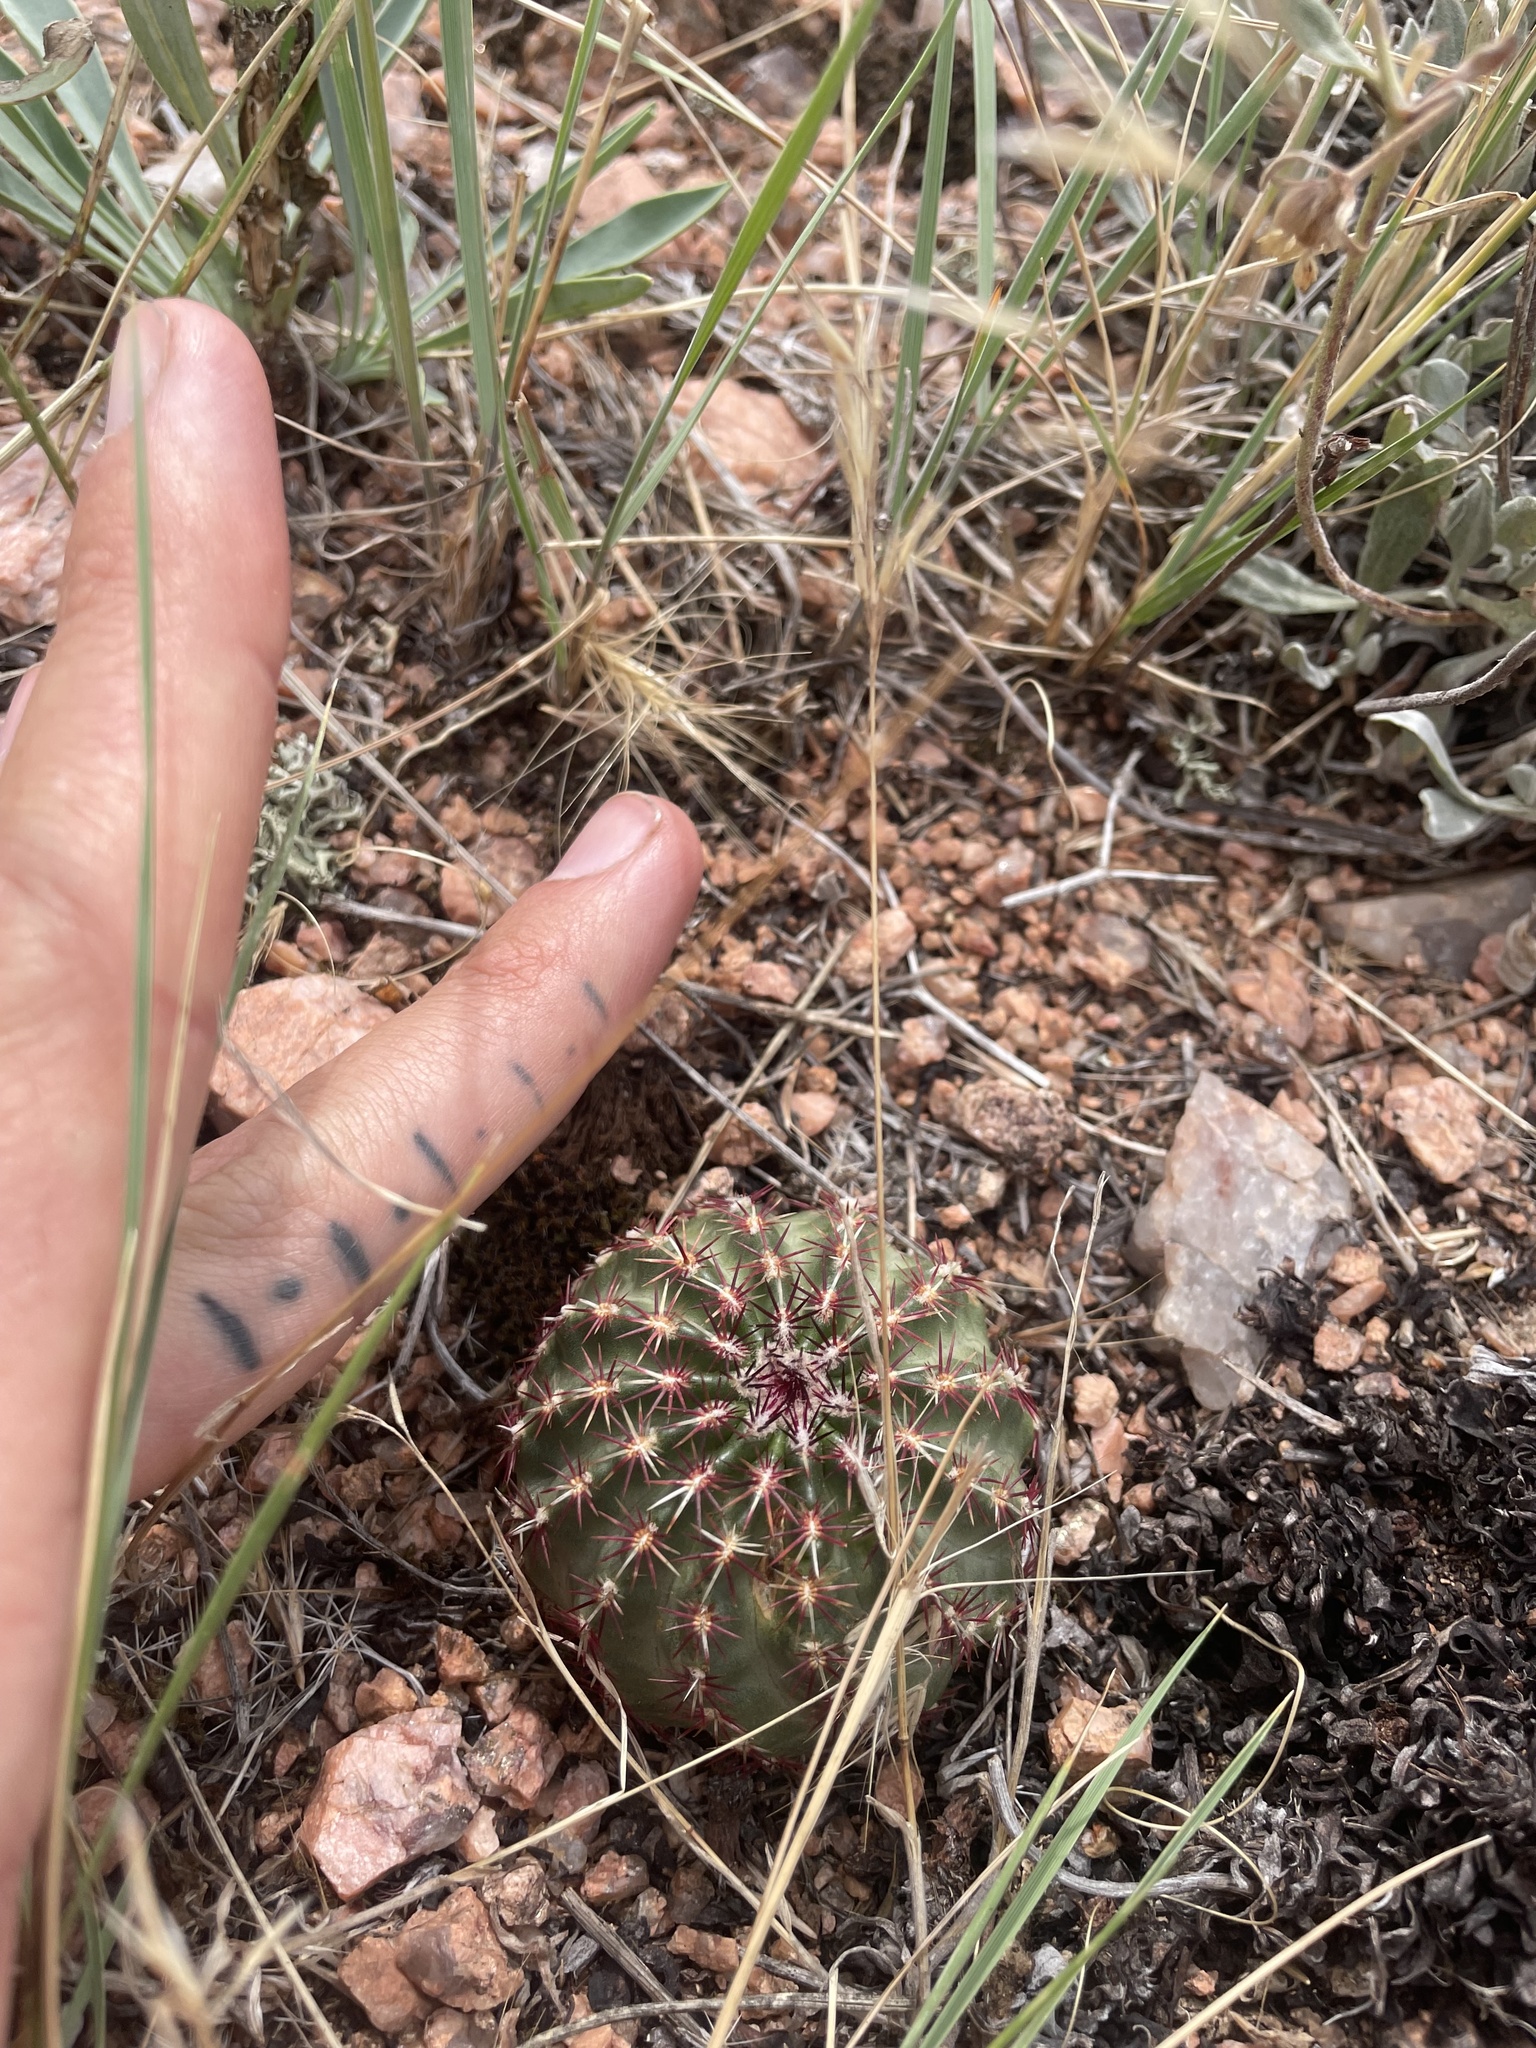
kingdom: Plantae
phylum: Tracheophyta
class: Magnoliopsida
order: Caryophyllales
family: Cactaceae
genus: Echinocereus
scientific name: Echinocereus viridiflorus
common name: Nylon hedgehog cactus
